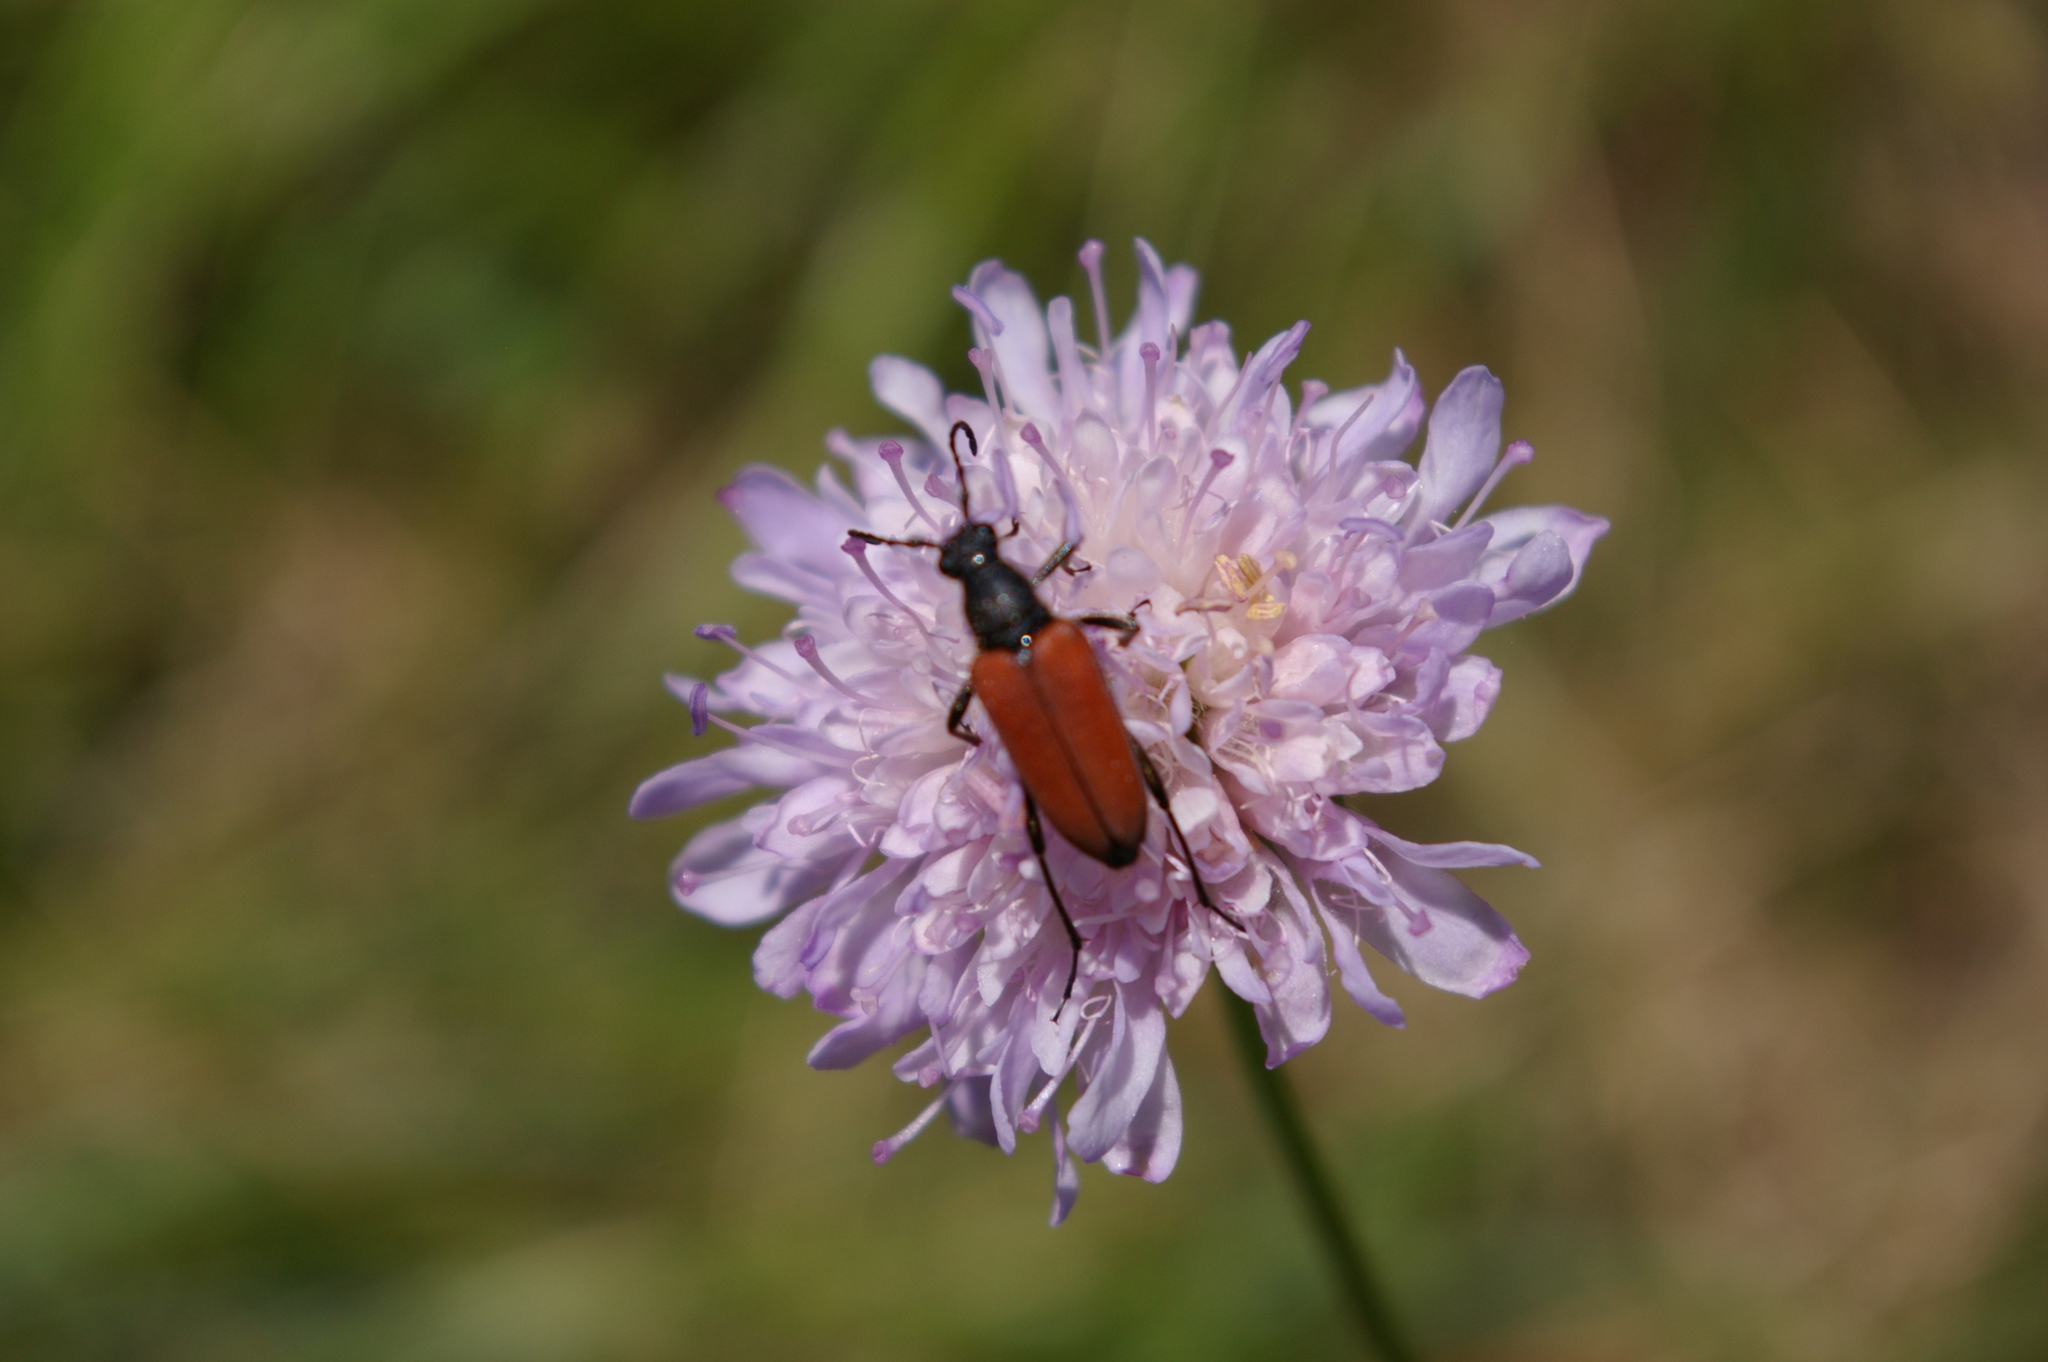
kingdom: Animalia
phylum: Arthropoda
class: Insecta
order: Coleoptera
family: Cerambycidae
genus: Anastrangalia
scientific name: Anastrangalia sanguinolenta
